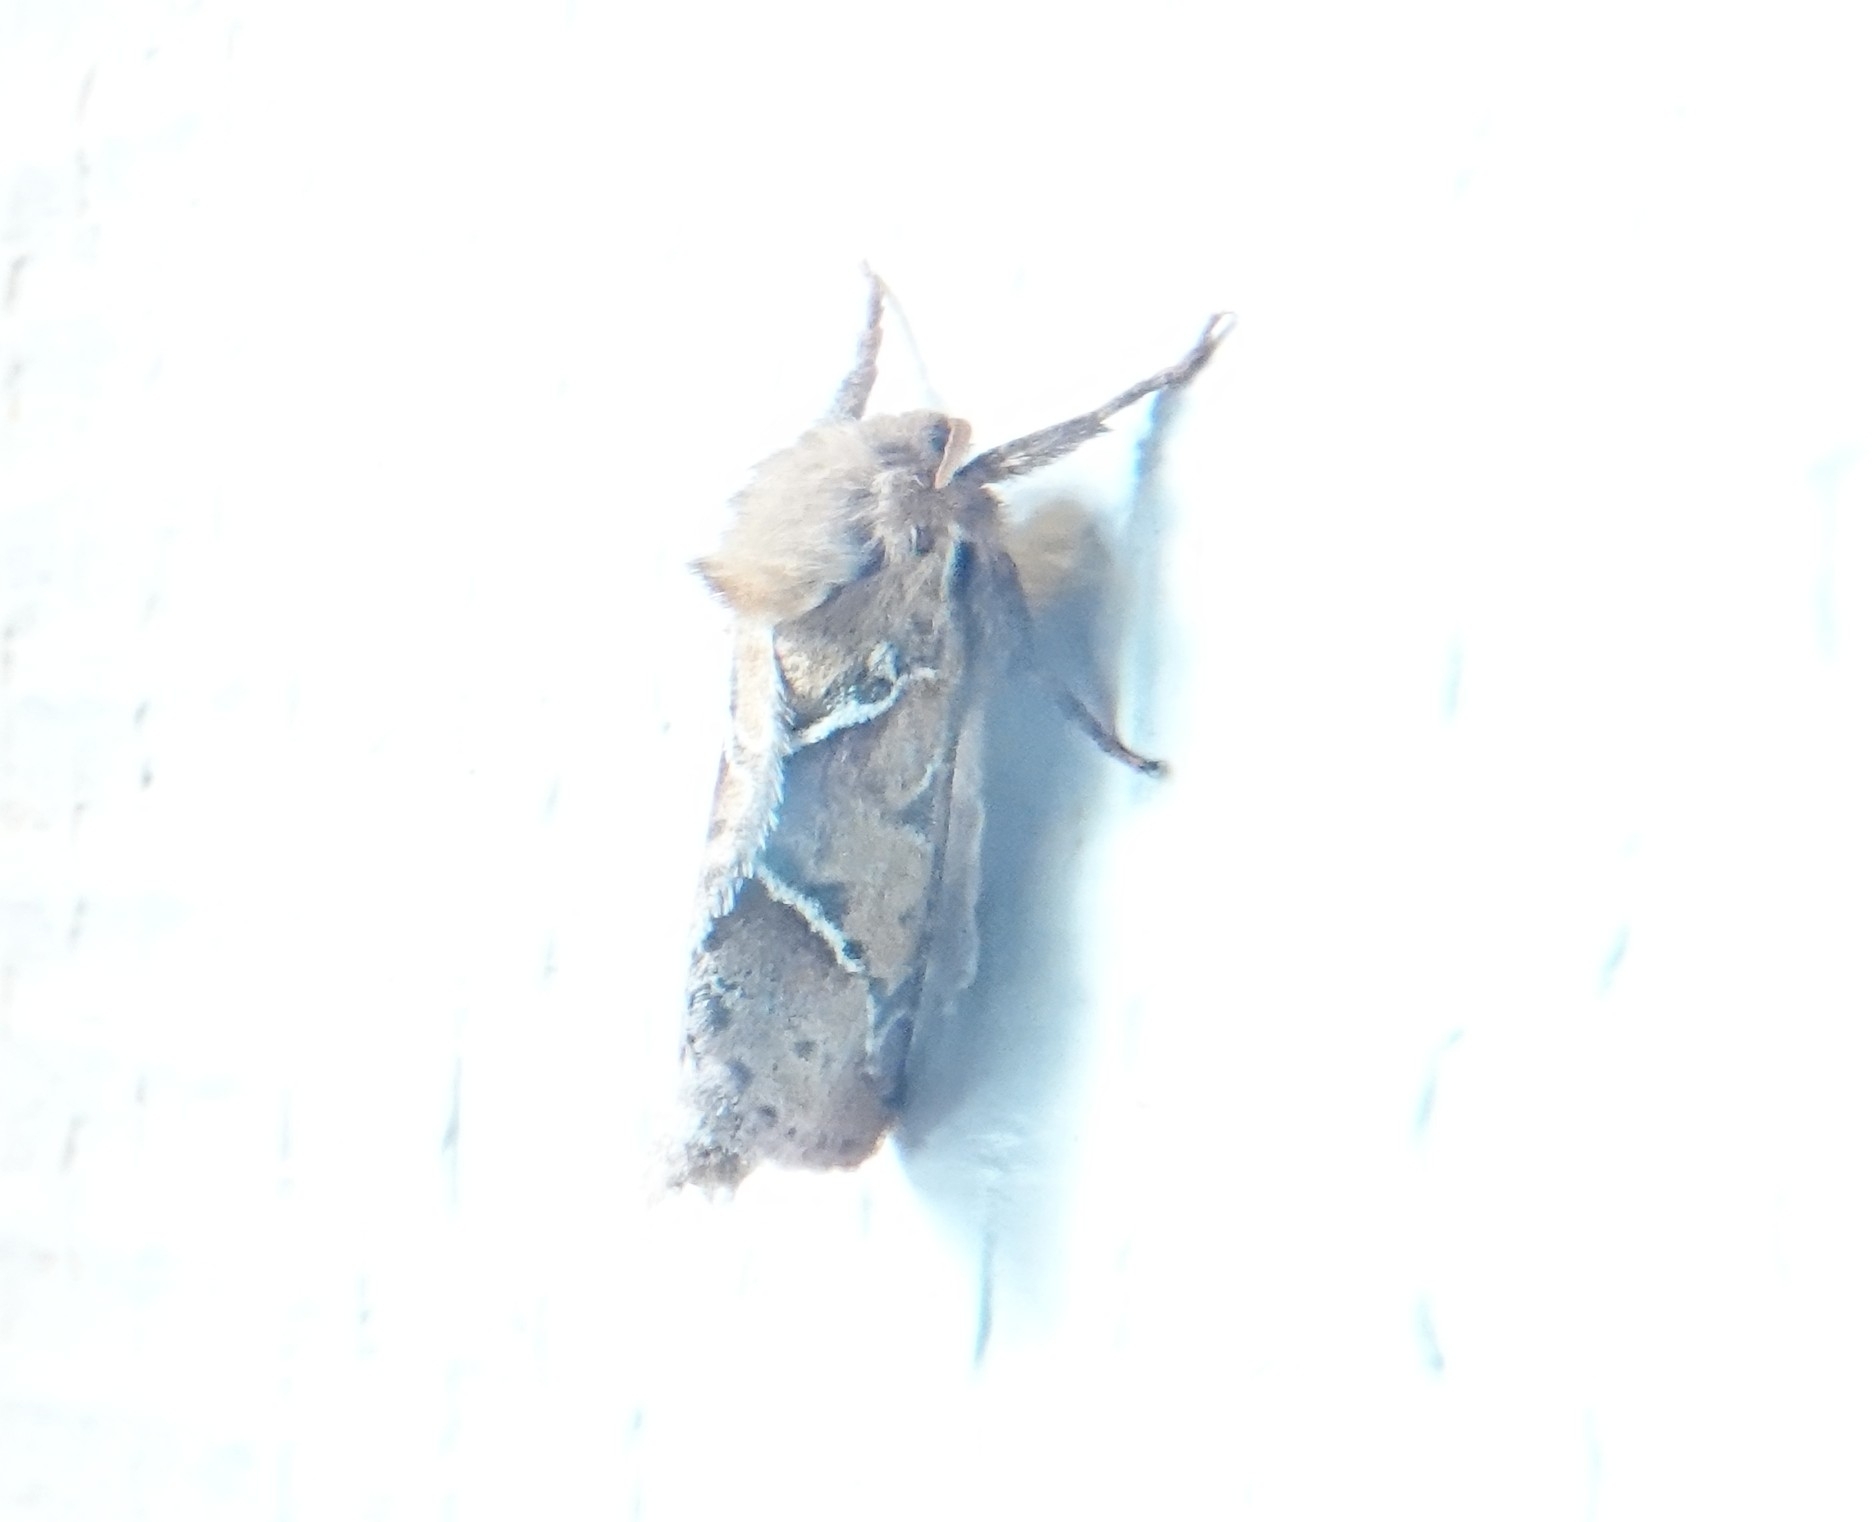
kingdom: Animalia
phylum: Arthropoda
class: Insecta
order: Lepidoptera
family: Hepialidae
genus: Triodia
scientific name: Triodia sylvina
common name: Orange swift
